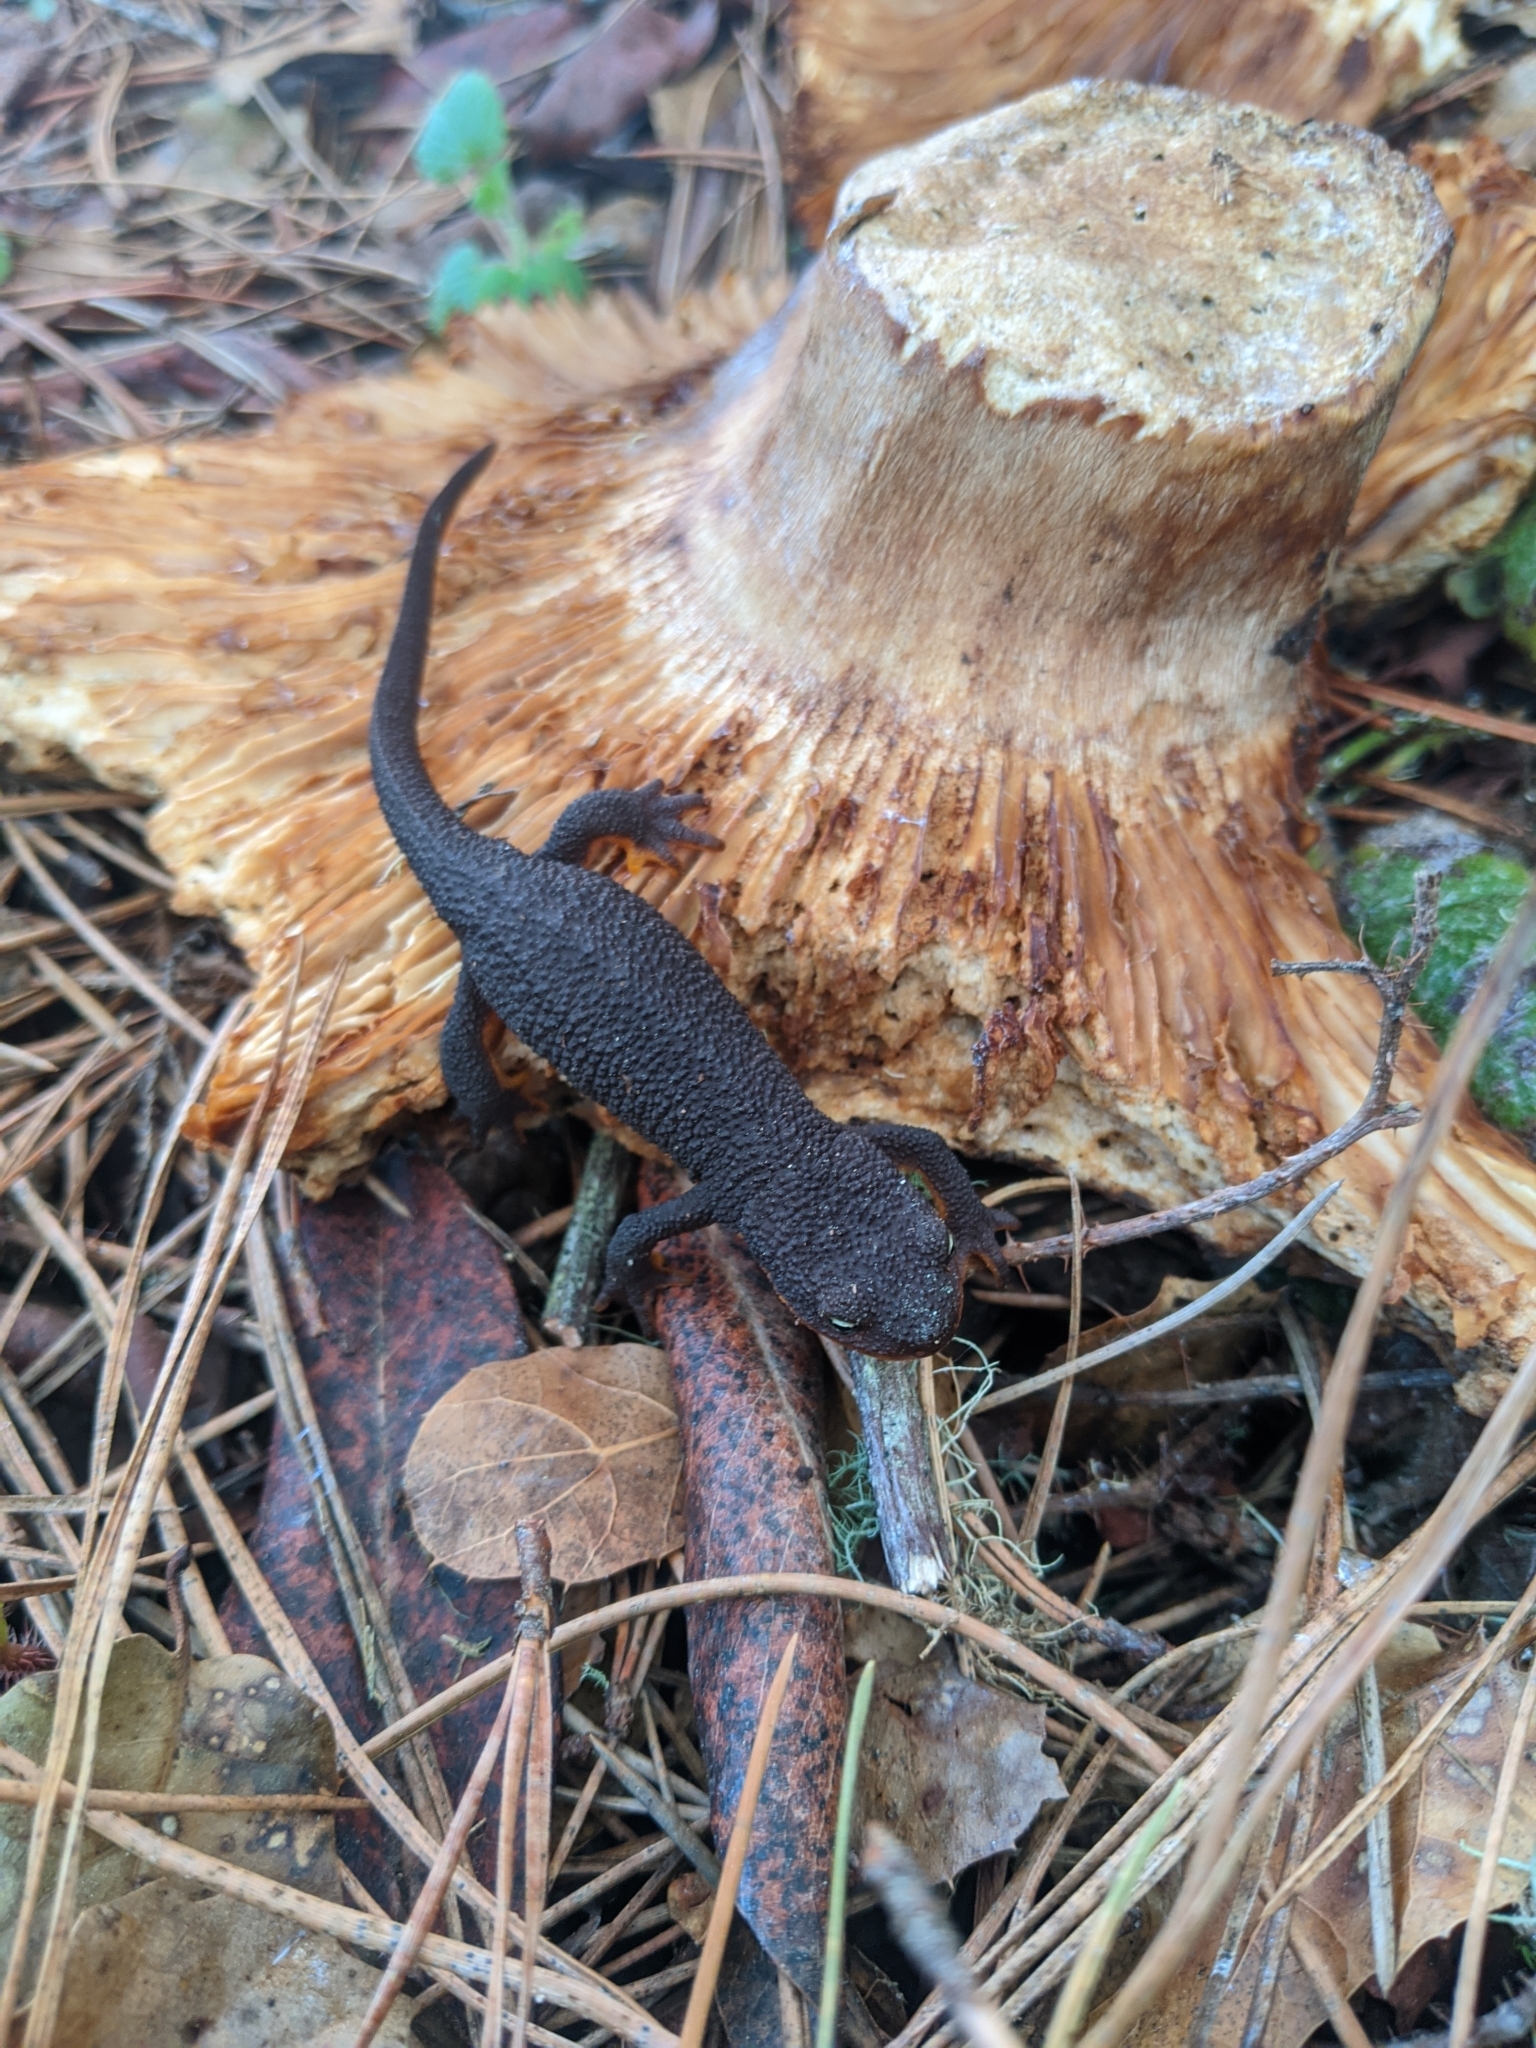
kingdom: Animalia
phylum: Chordata
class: Amphibia
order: Caudata
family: Salamandridae
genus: Taricha
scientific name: Taricha granulosa
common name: Roughskin newt
